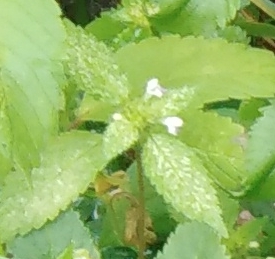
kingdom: Plantae
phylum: Tracheophyta
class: Magnoliopsida
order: Lamiales
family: Lamiaceae
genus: Galeopsis
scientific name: Galeopsis bifida
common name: Bifid hemp-nettle
